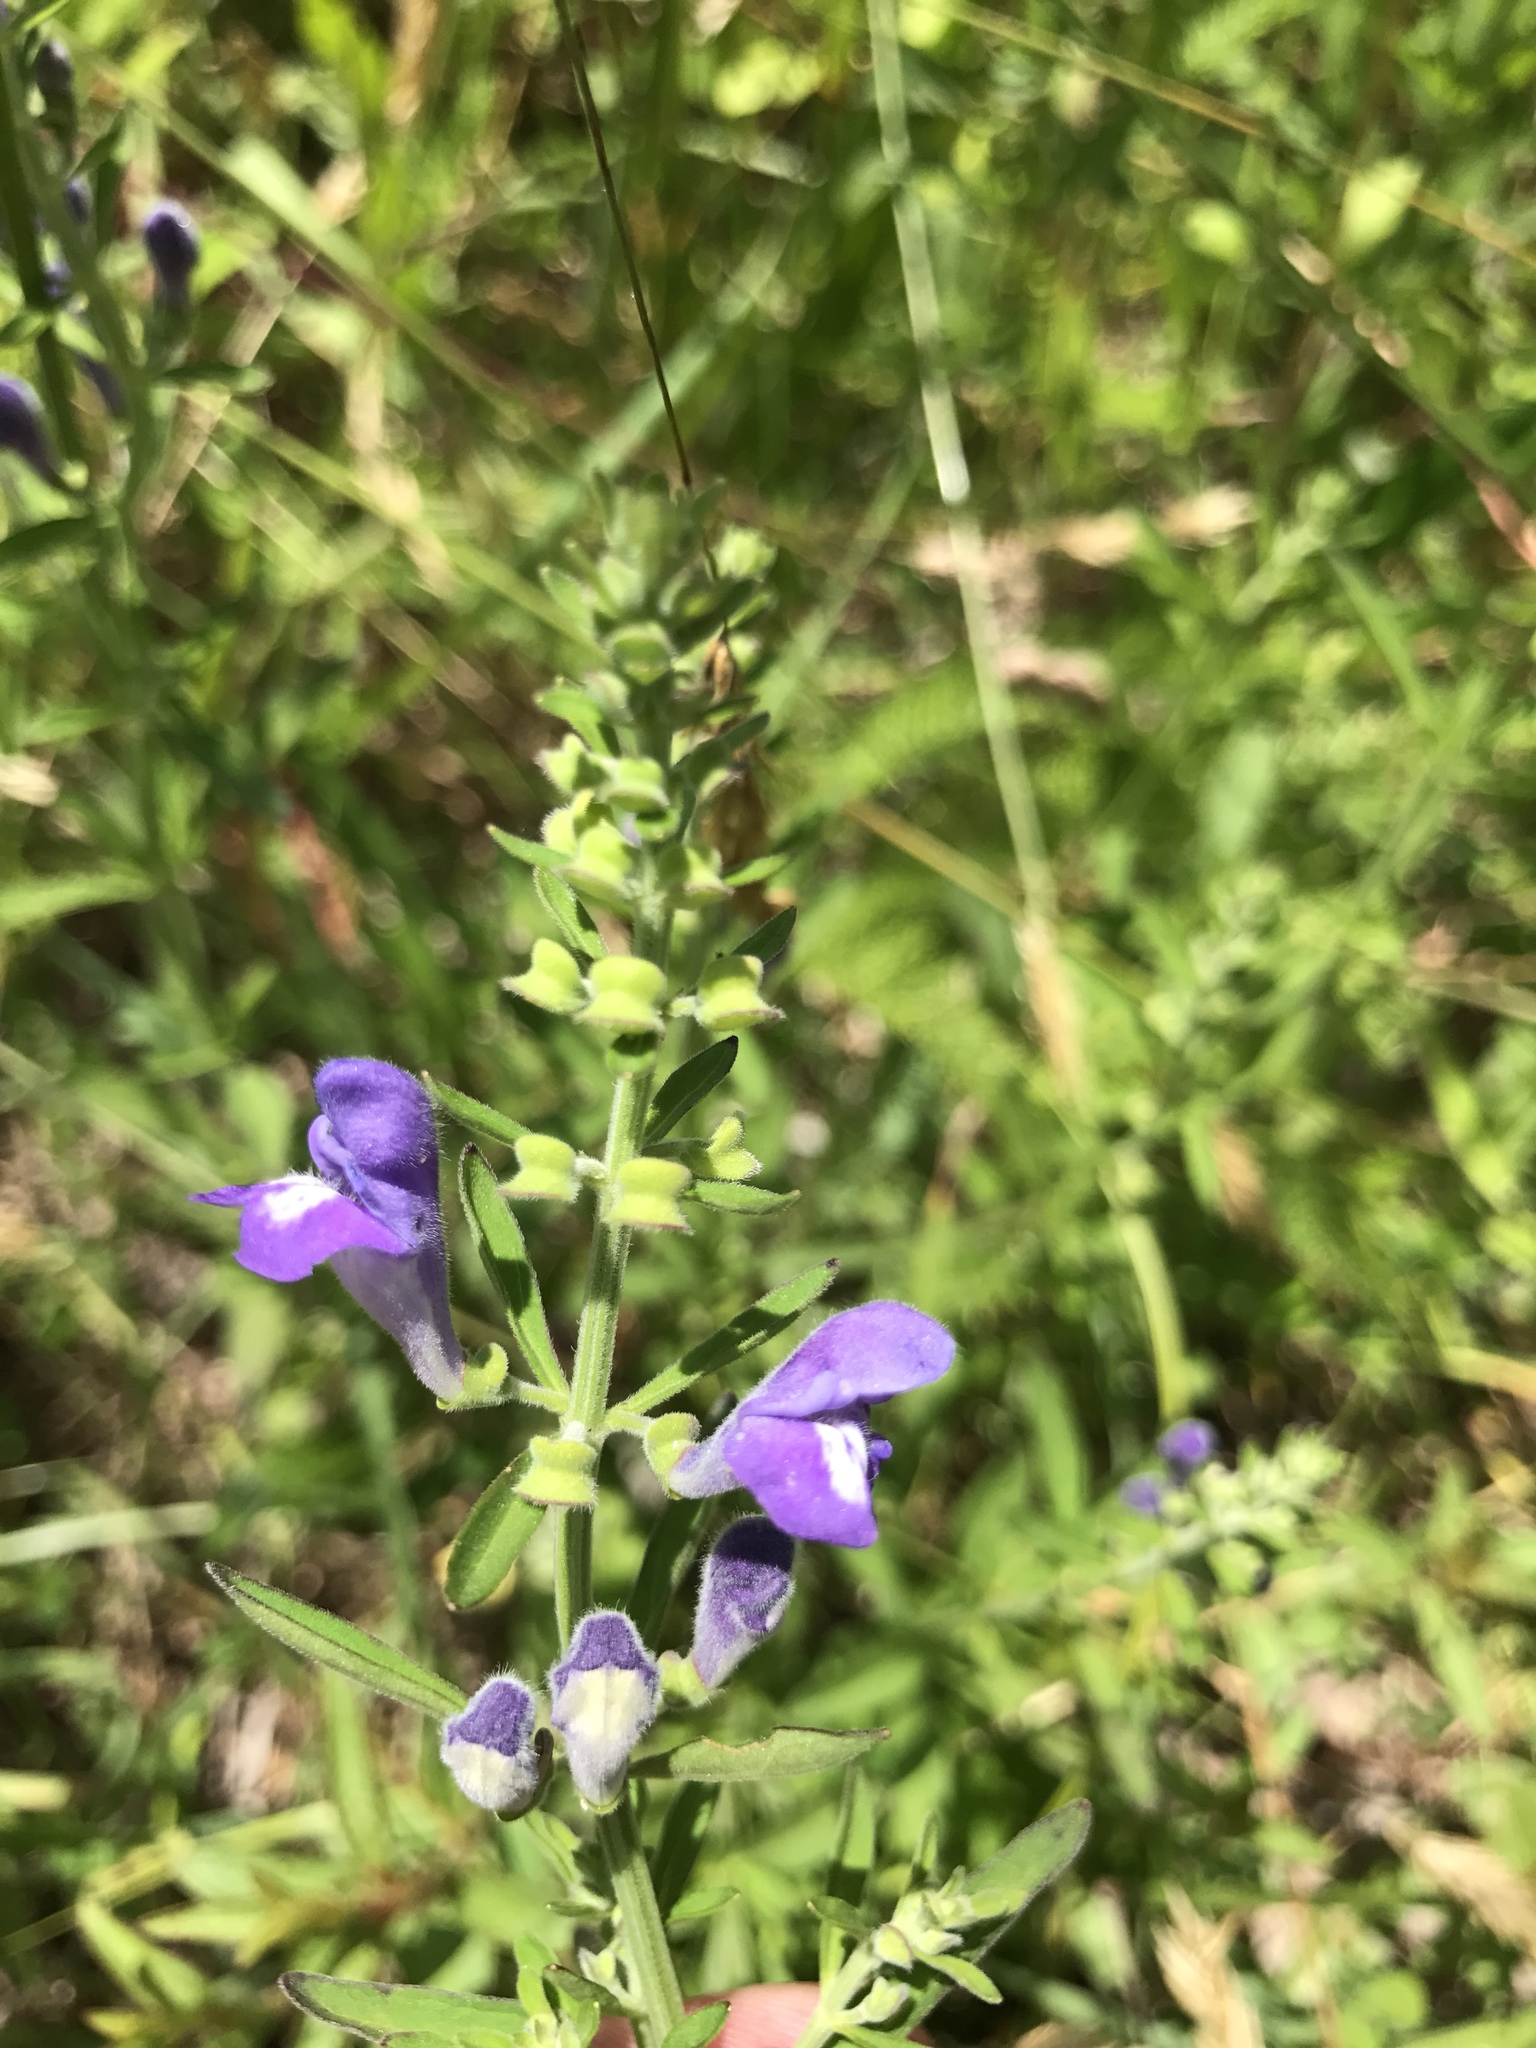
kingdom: Plantae
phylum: Tracheophyta
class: Magnoliopsida
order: Lamiales
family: Lamiaceae
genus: Scutellaria
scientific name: Scutellaria integrifolia
